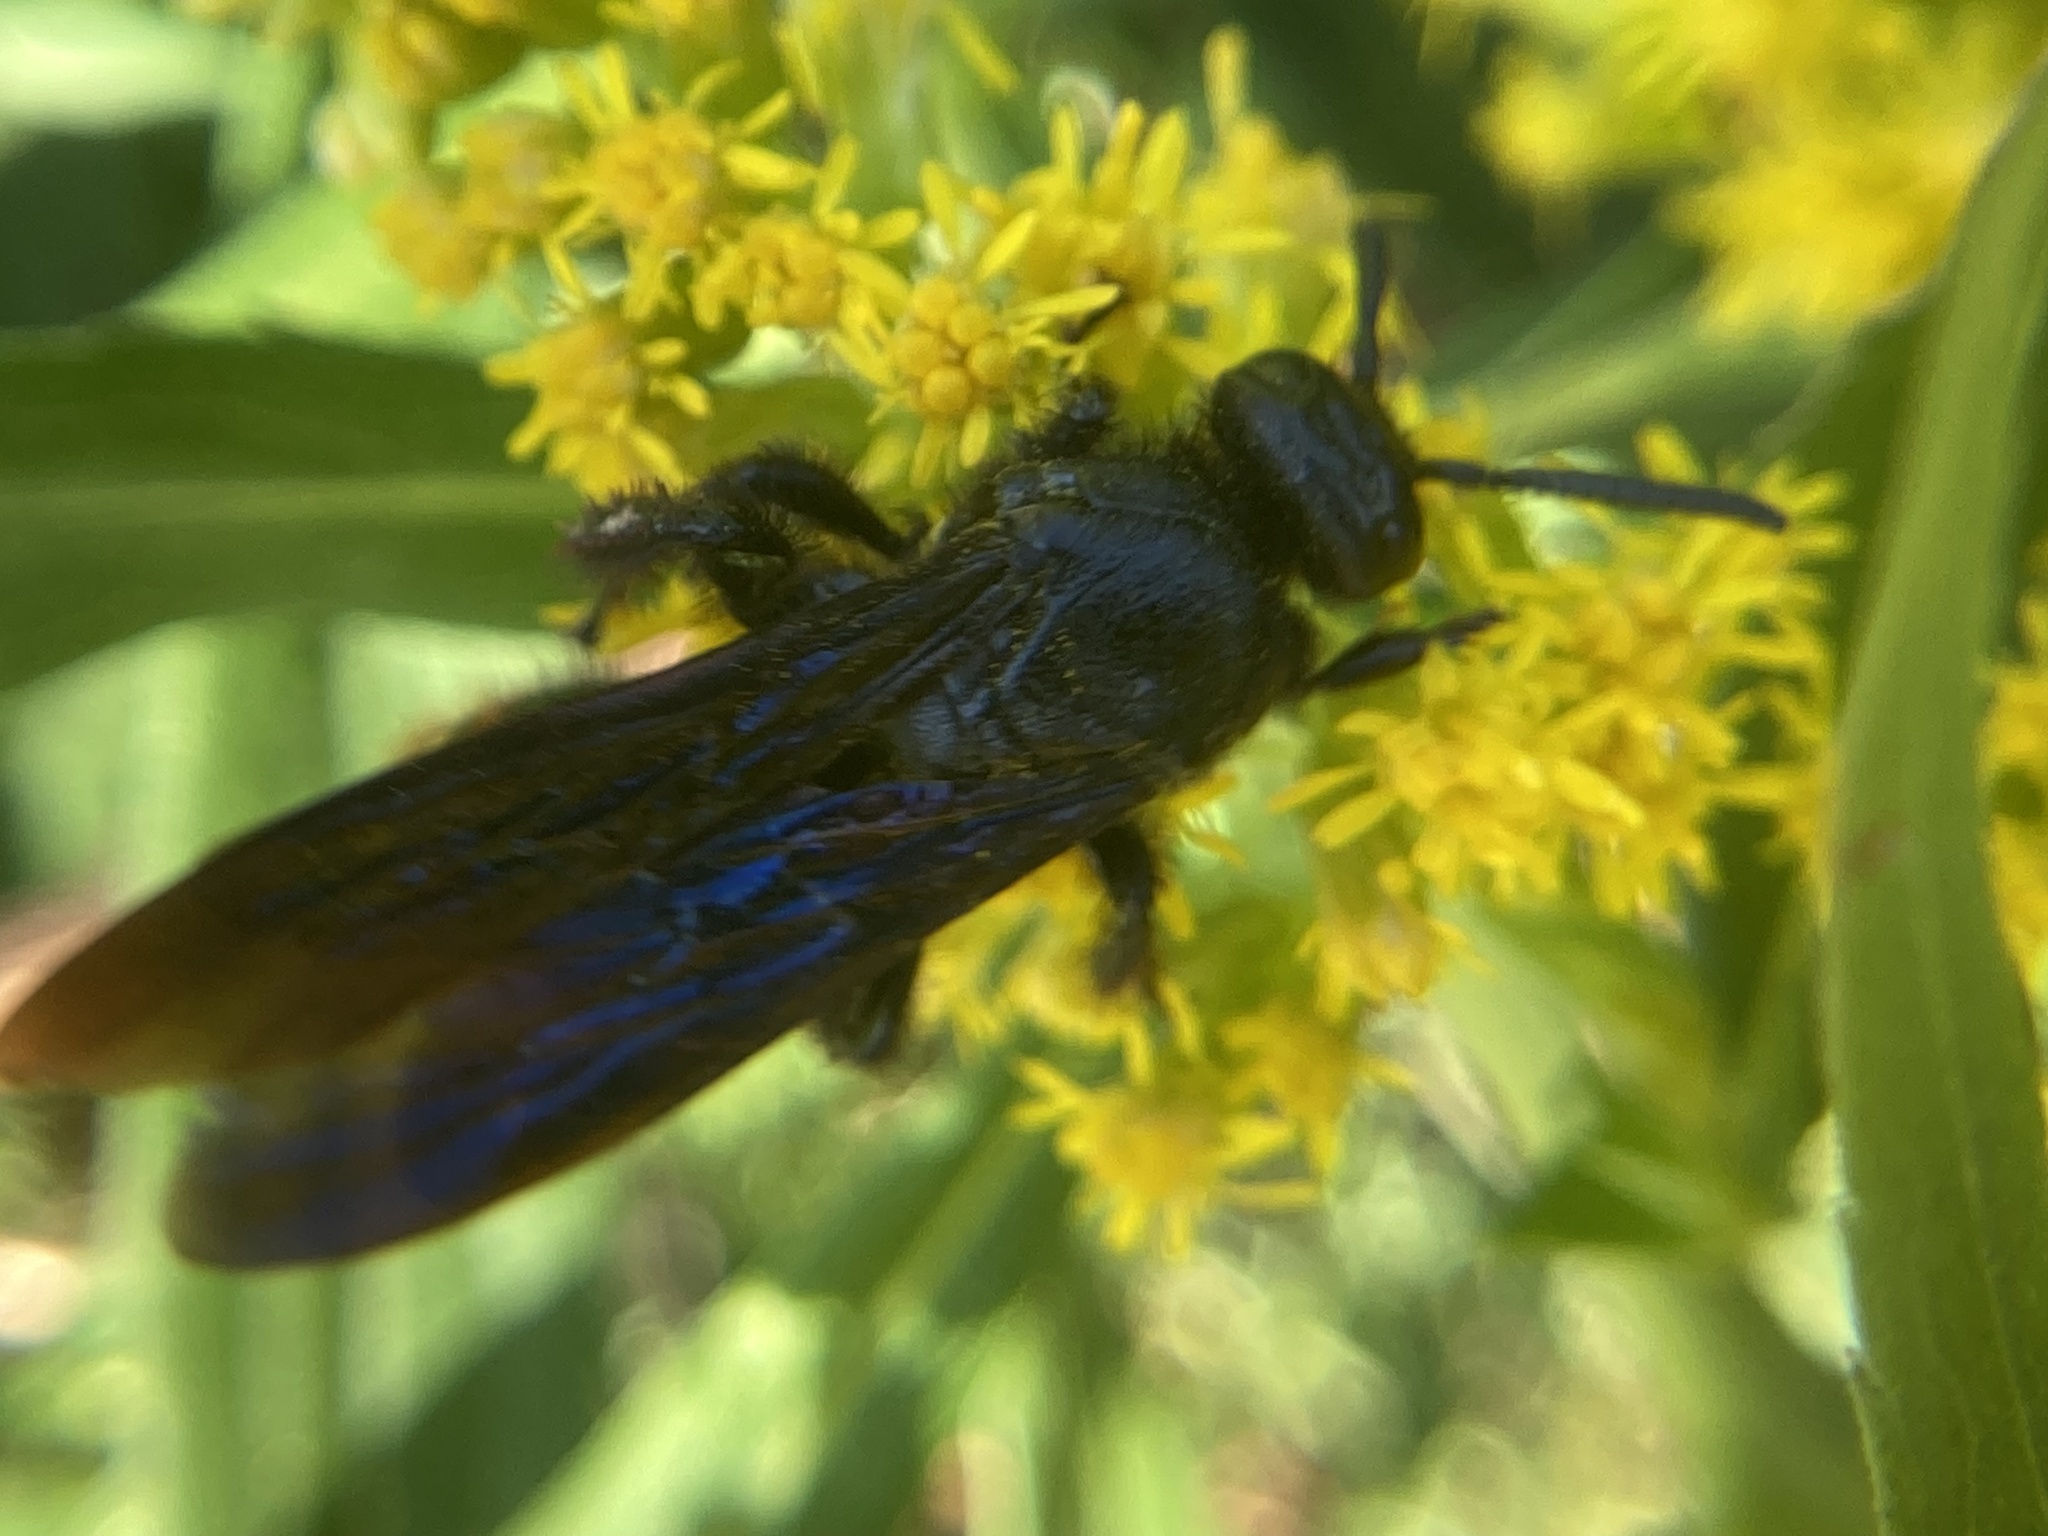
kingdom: Animalia
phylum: Arthropoda
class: Insecta
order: Hymenoptera
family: Scoliidae
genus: Scolia
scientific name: Scolia dubia
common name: Blue-winged scoliid wasp
